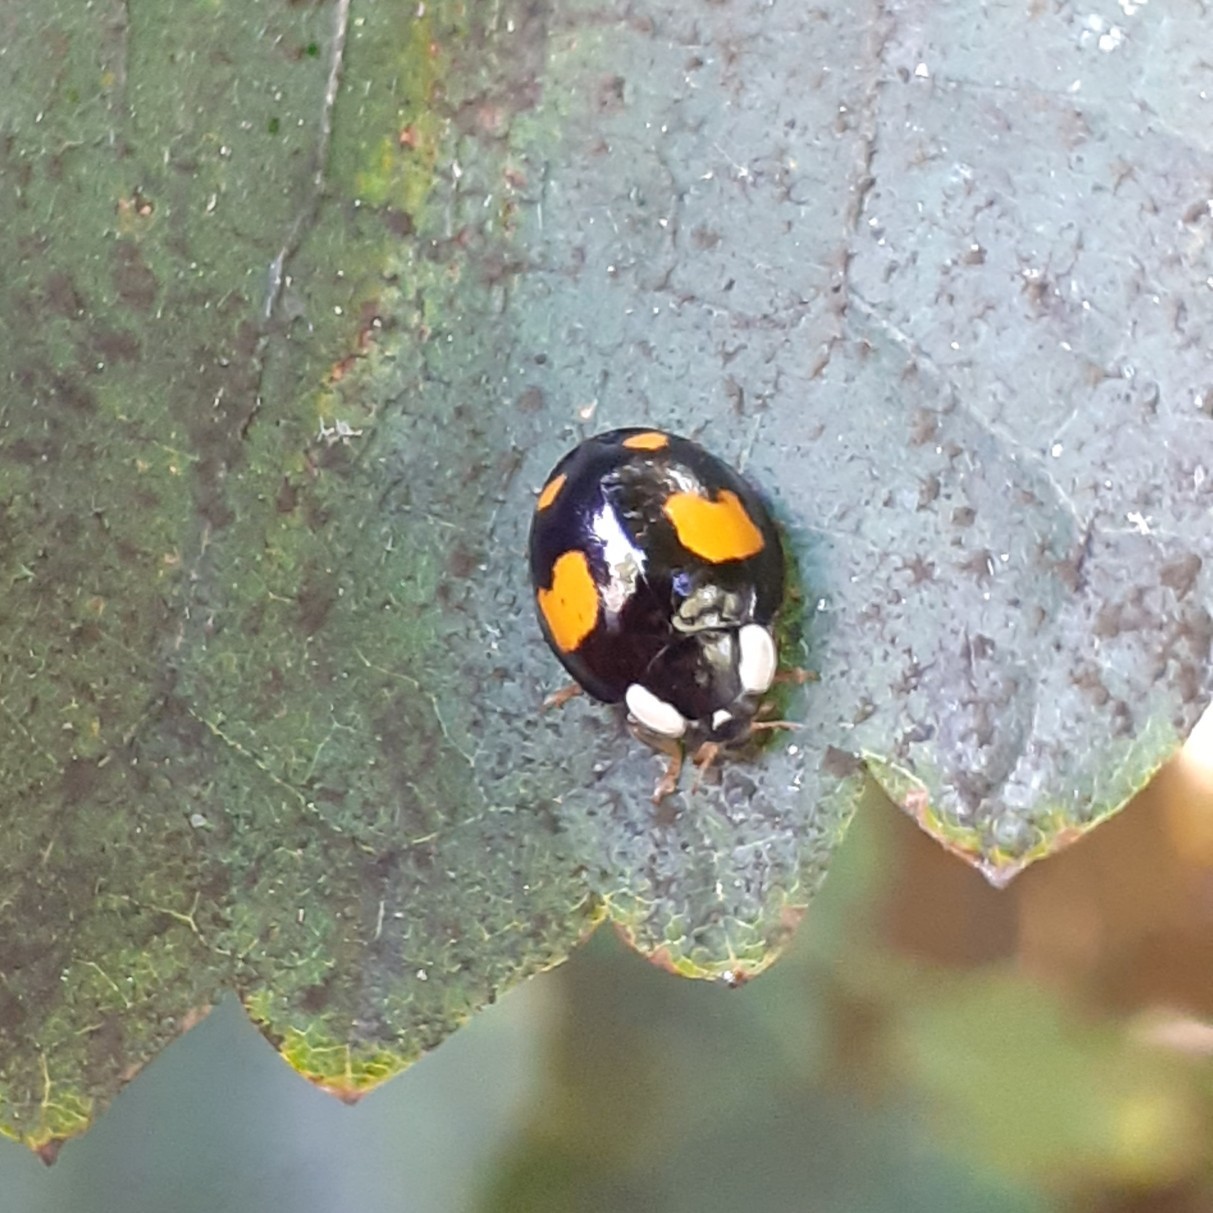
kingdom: Animalia
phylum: Arthropoda
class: Insecta
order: Coleoptera
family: Coccinellidae
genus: Harmonia
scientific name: Harmonia axyridis
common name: Harlequin ladybird
